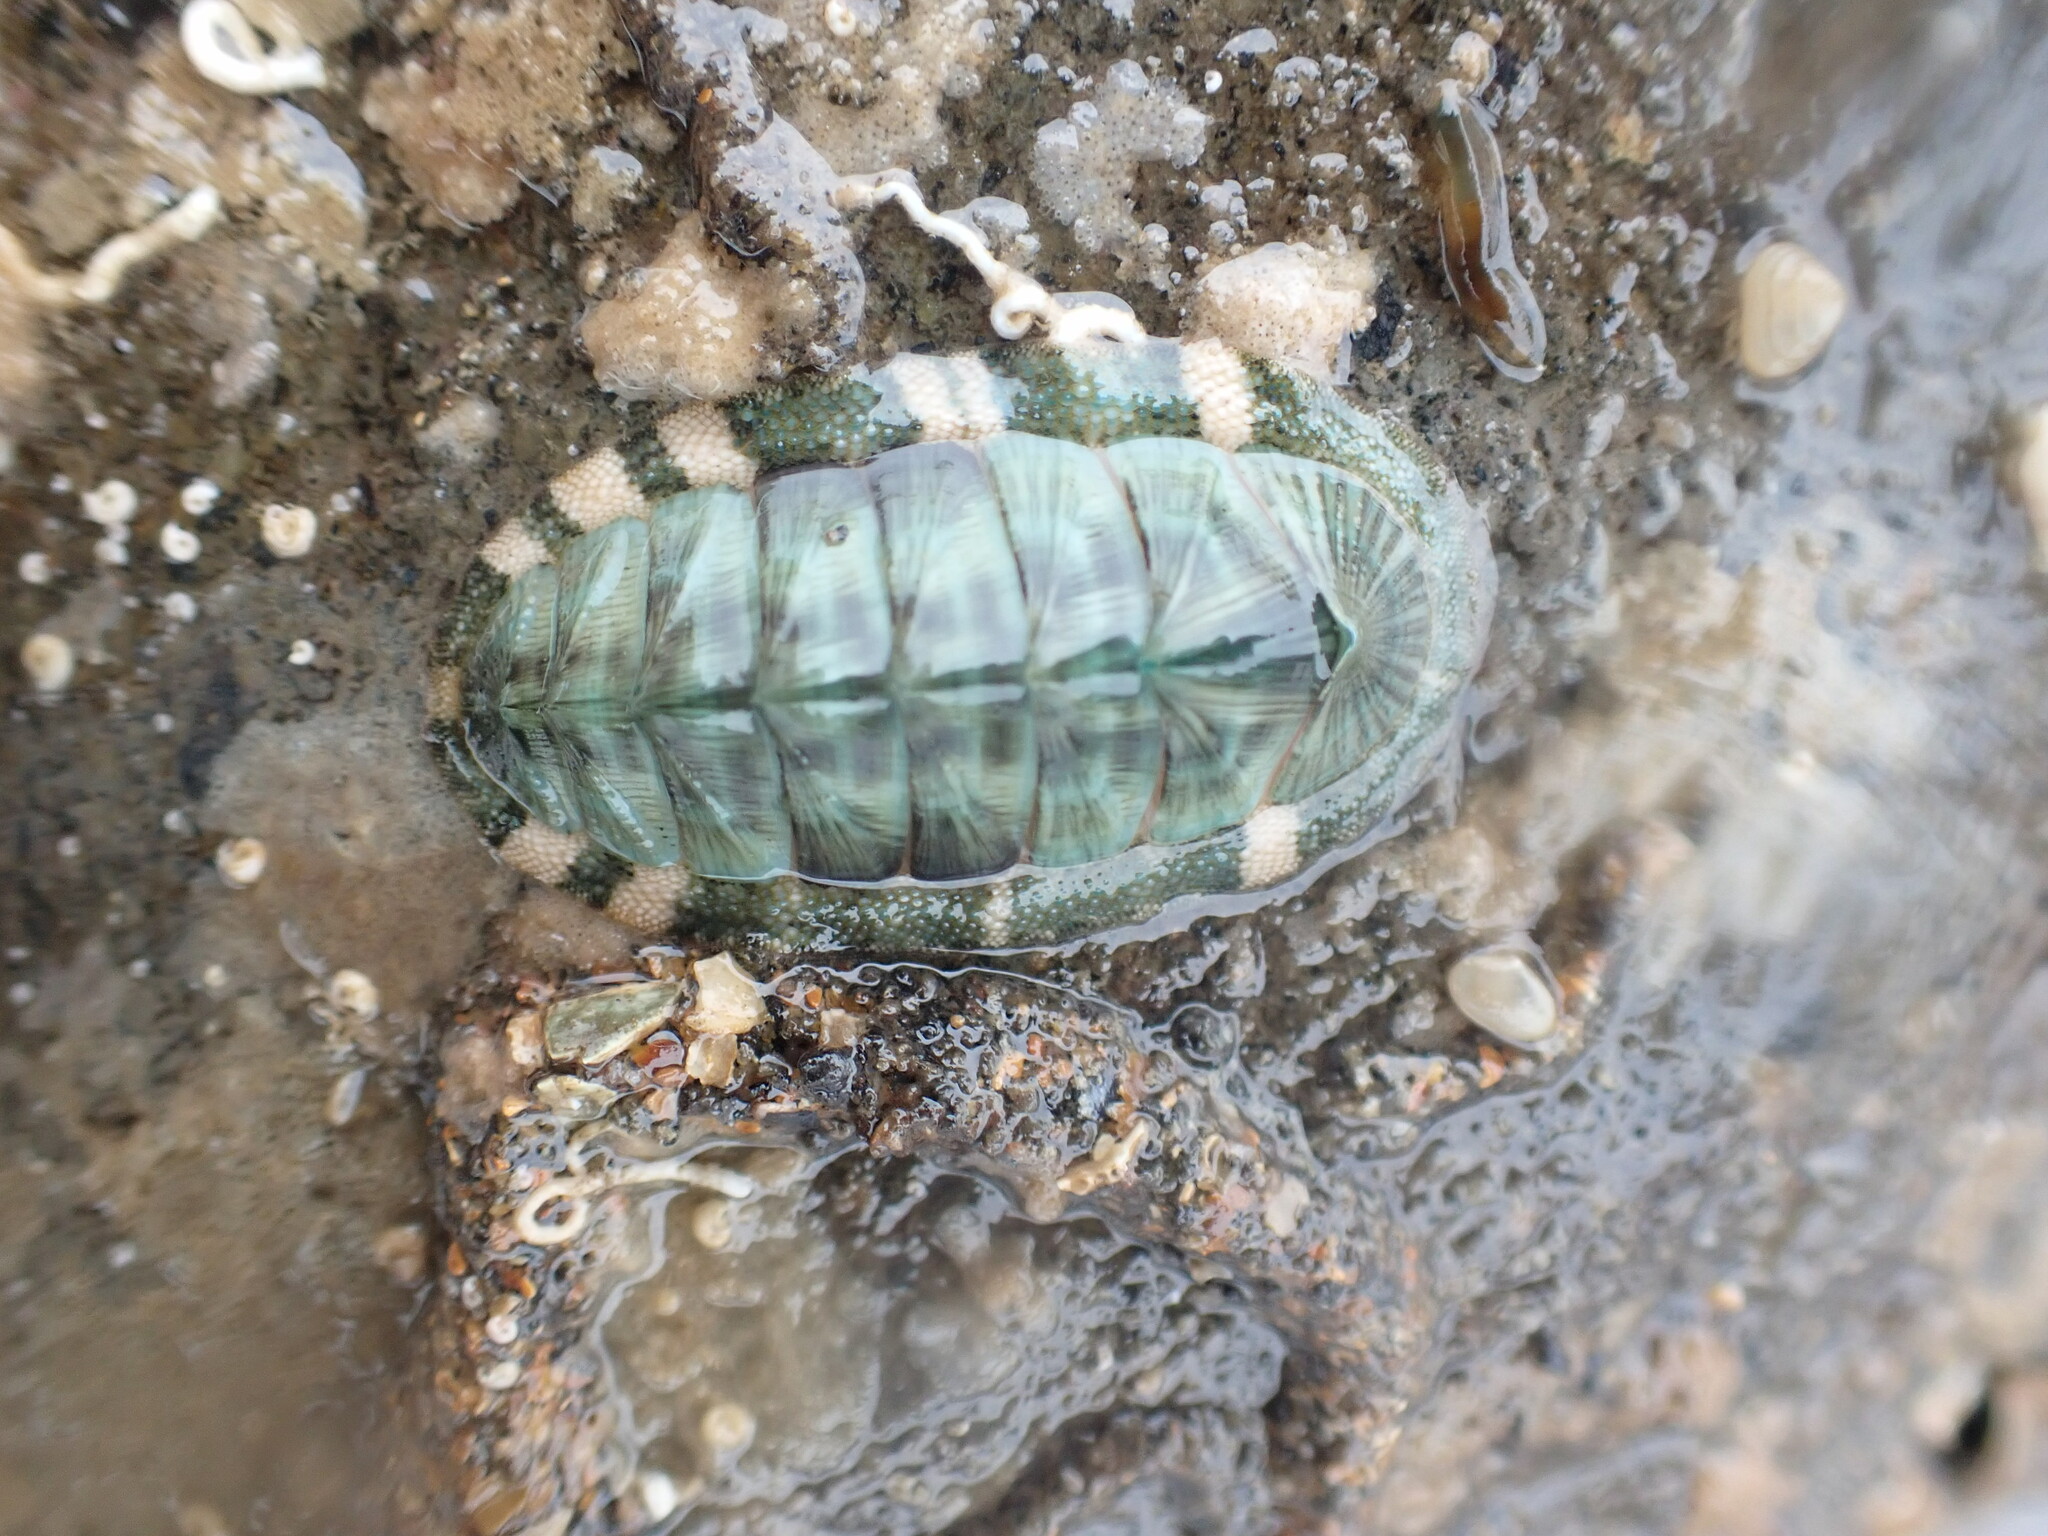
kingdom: Animalia
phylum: Mollusca
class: Polyplacophora
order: Chitonida
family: Chitonidae
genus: Rhyssoplax
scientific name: Rhyssoplax aerea
